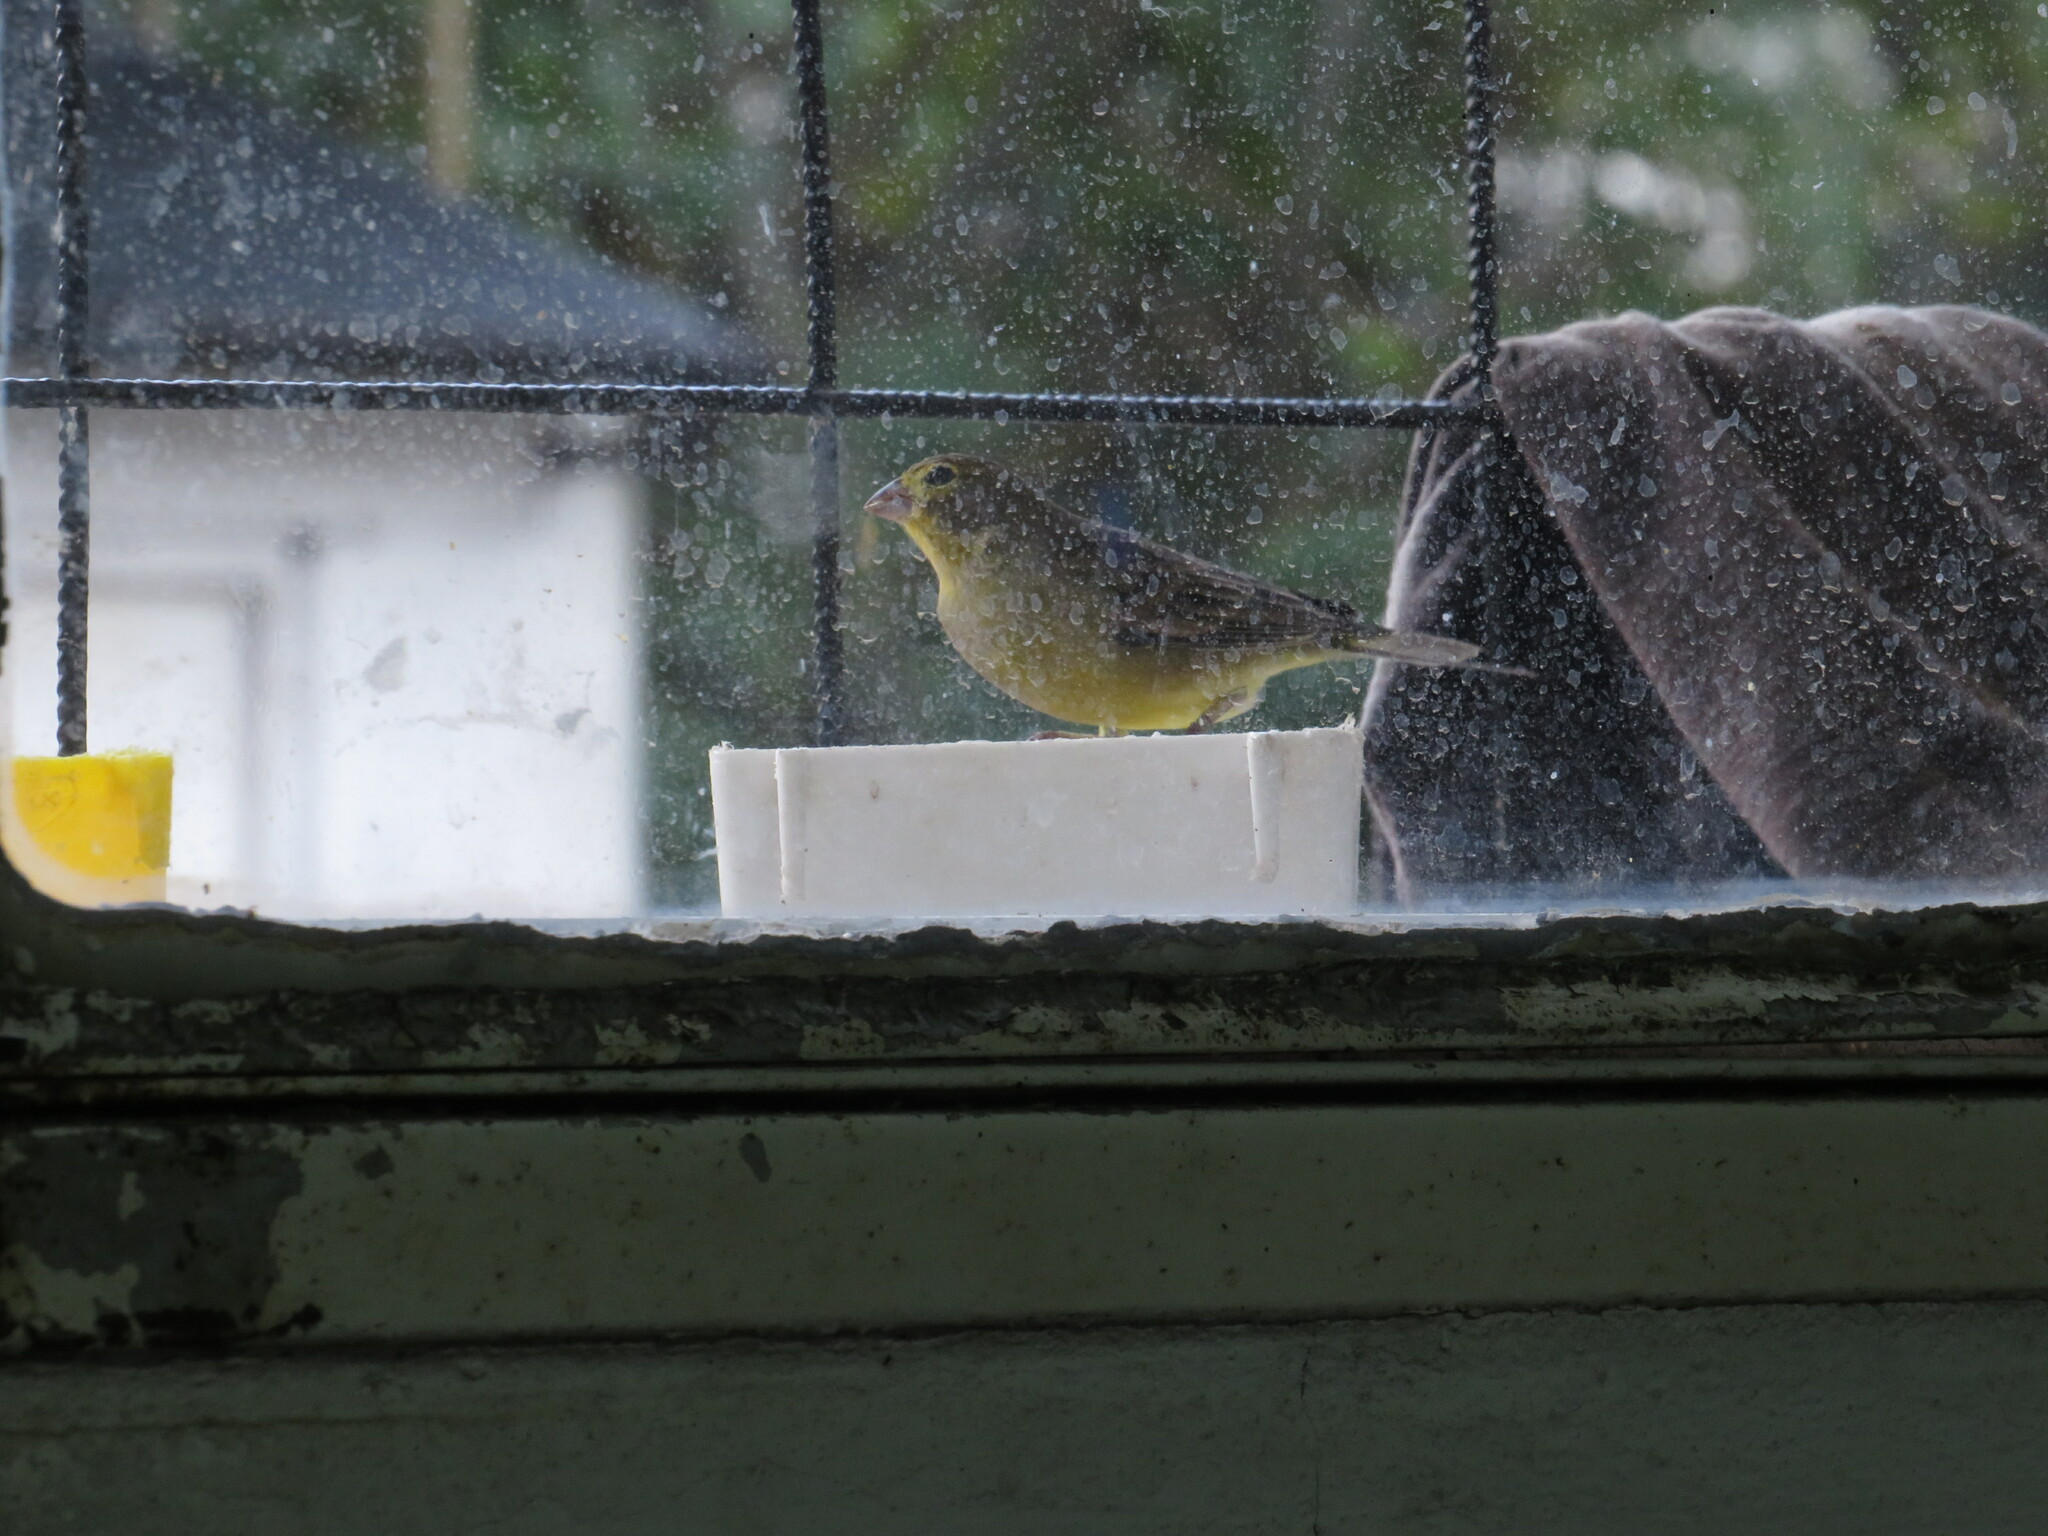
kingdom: Animalia
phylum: Chordata
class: Aves
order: Passeriformes
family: Thraupidae
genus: Sicalis
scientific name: Sicalis luteola
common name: Grassland yellow-finch
